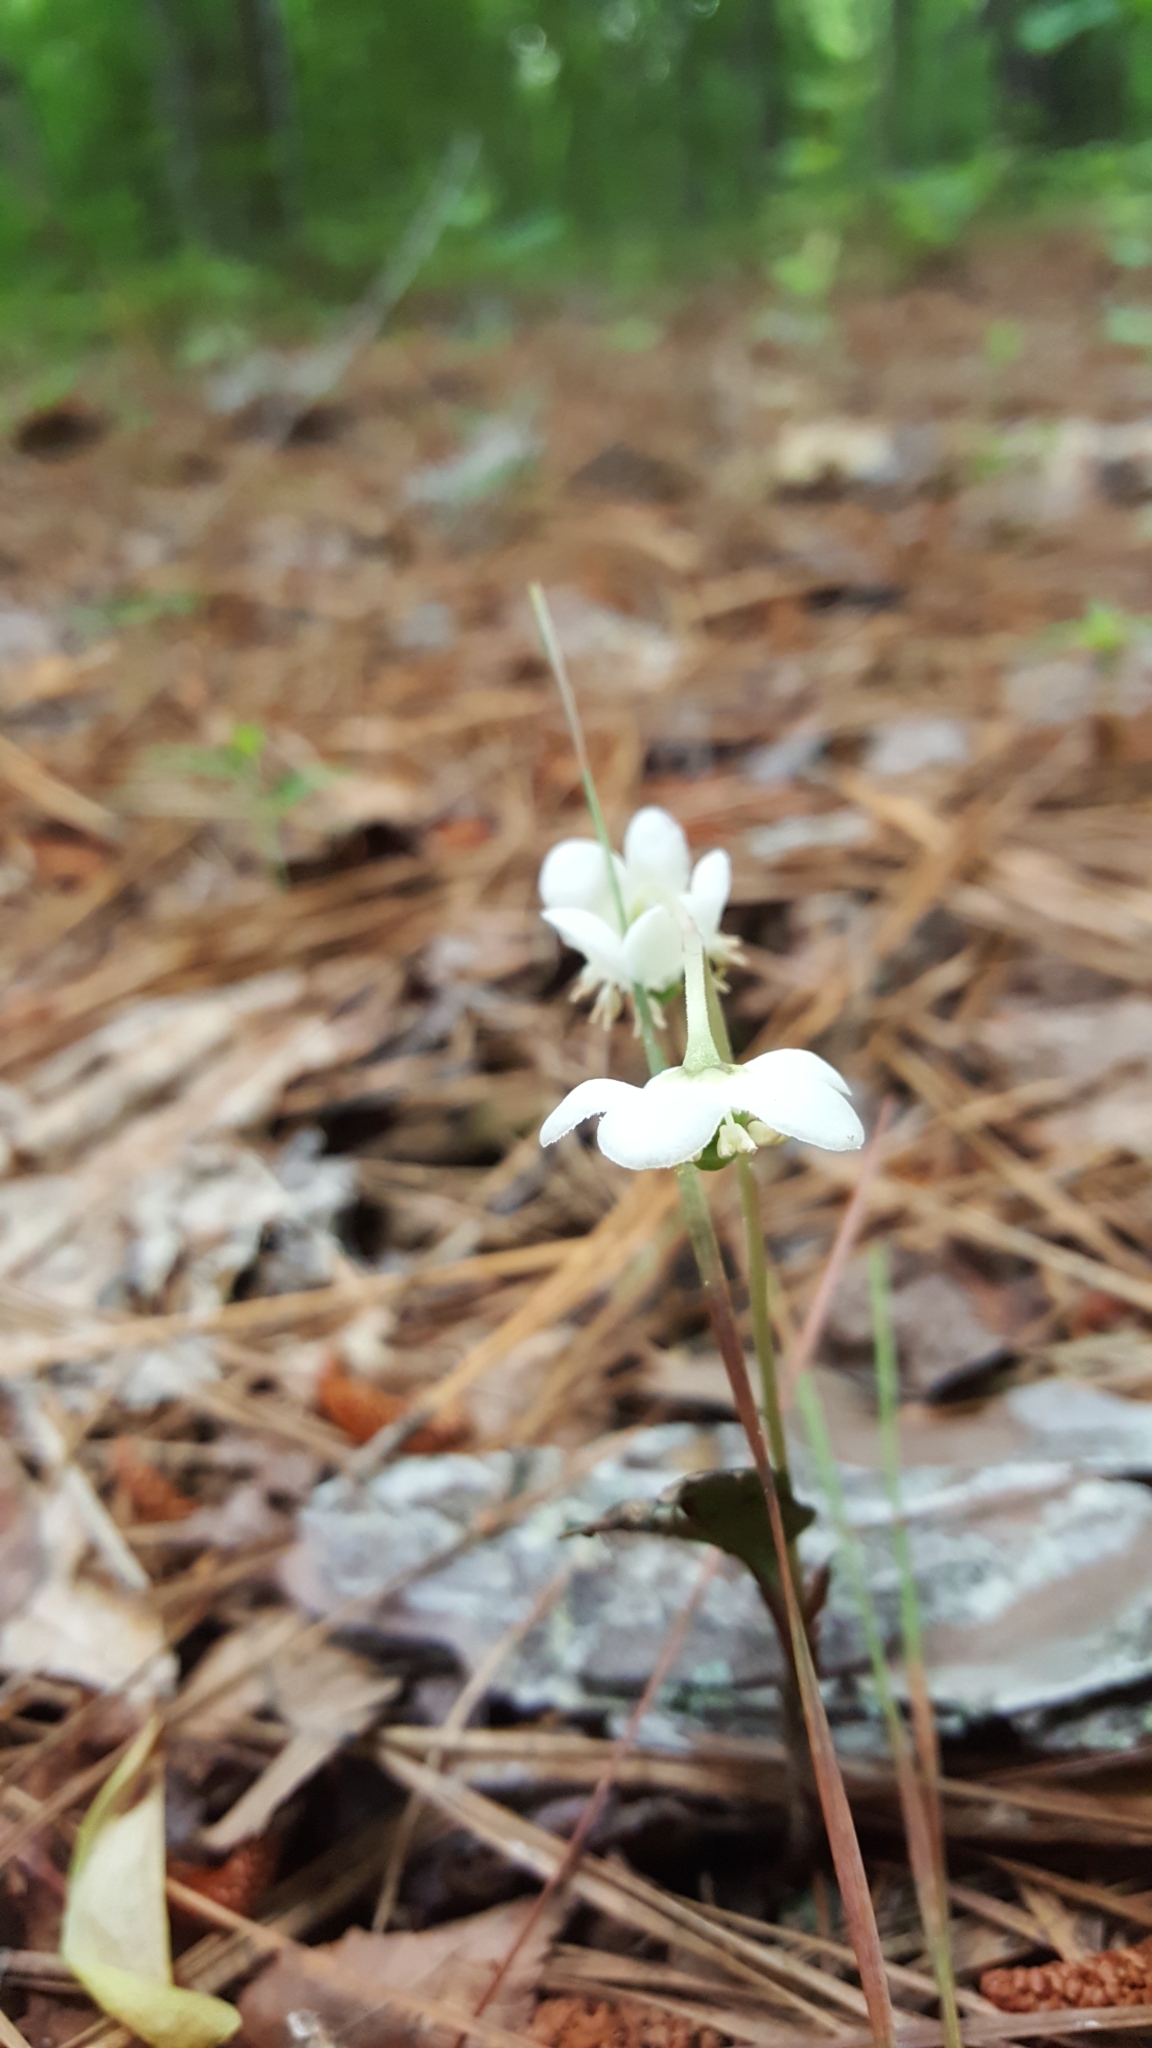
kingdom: Plantae
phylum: Tracheophyta
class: Magnoliopsida
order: Ericales
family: Ericaceae
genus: Chimaphila
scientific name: Chimaphila maculata
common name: Spotted pipsissewa
